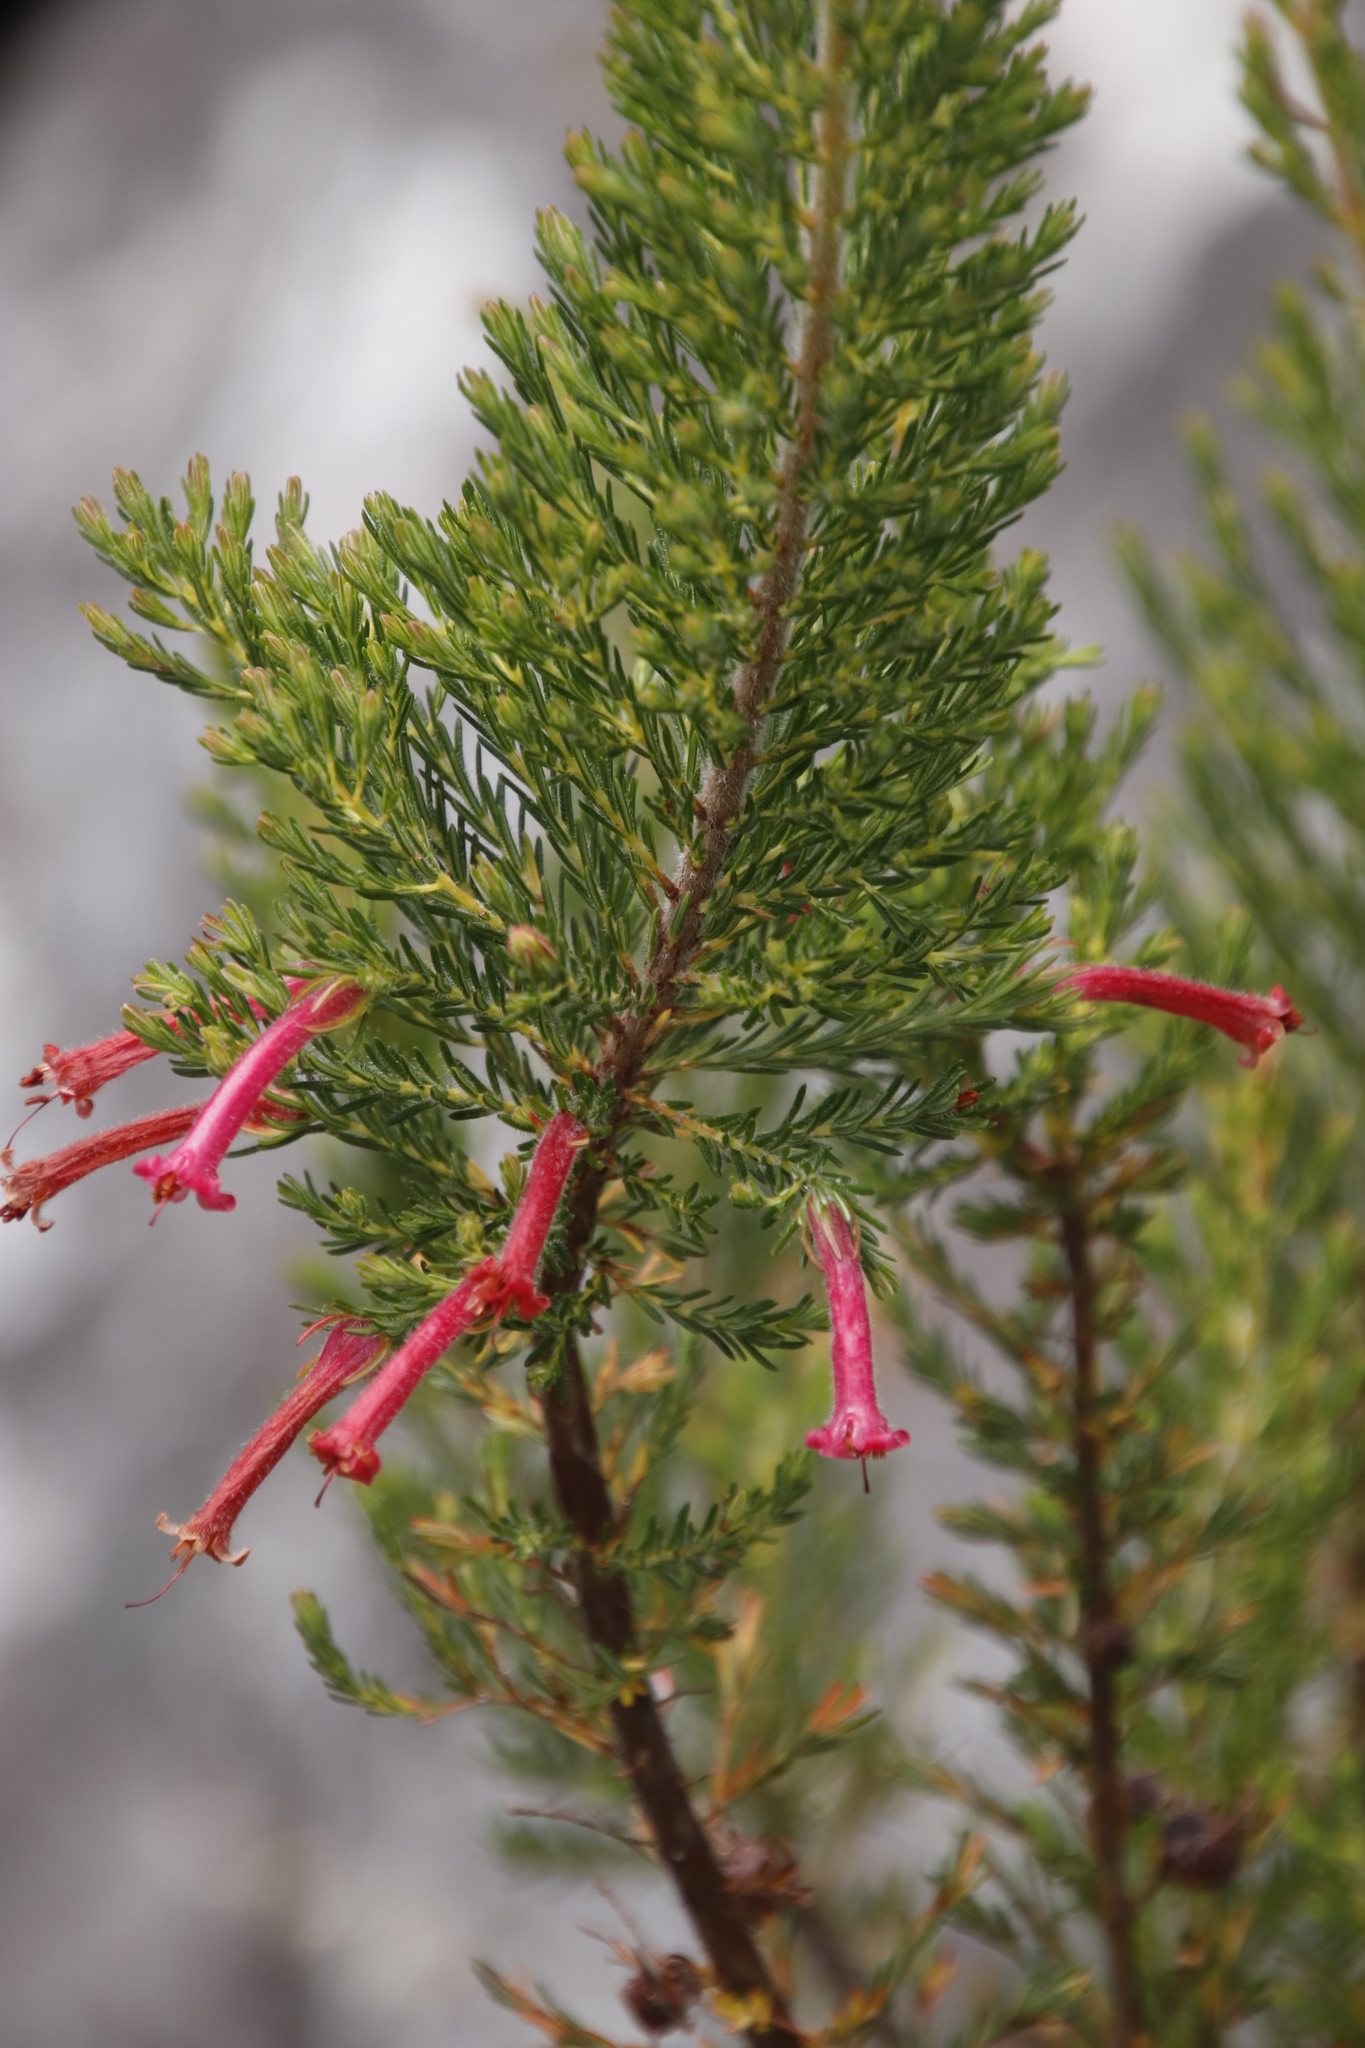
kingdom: Plantae
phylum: Tracheophyta
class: Magnoliopsida
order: Ericales
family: Ericaceae
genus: Erica
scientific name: Erica curviflora
